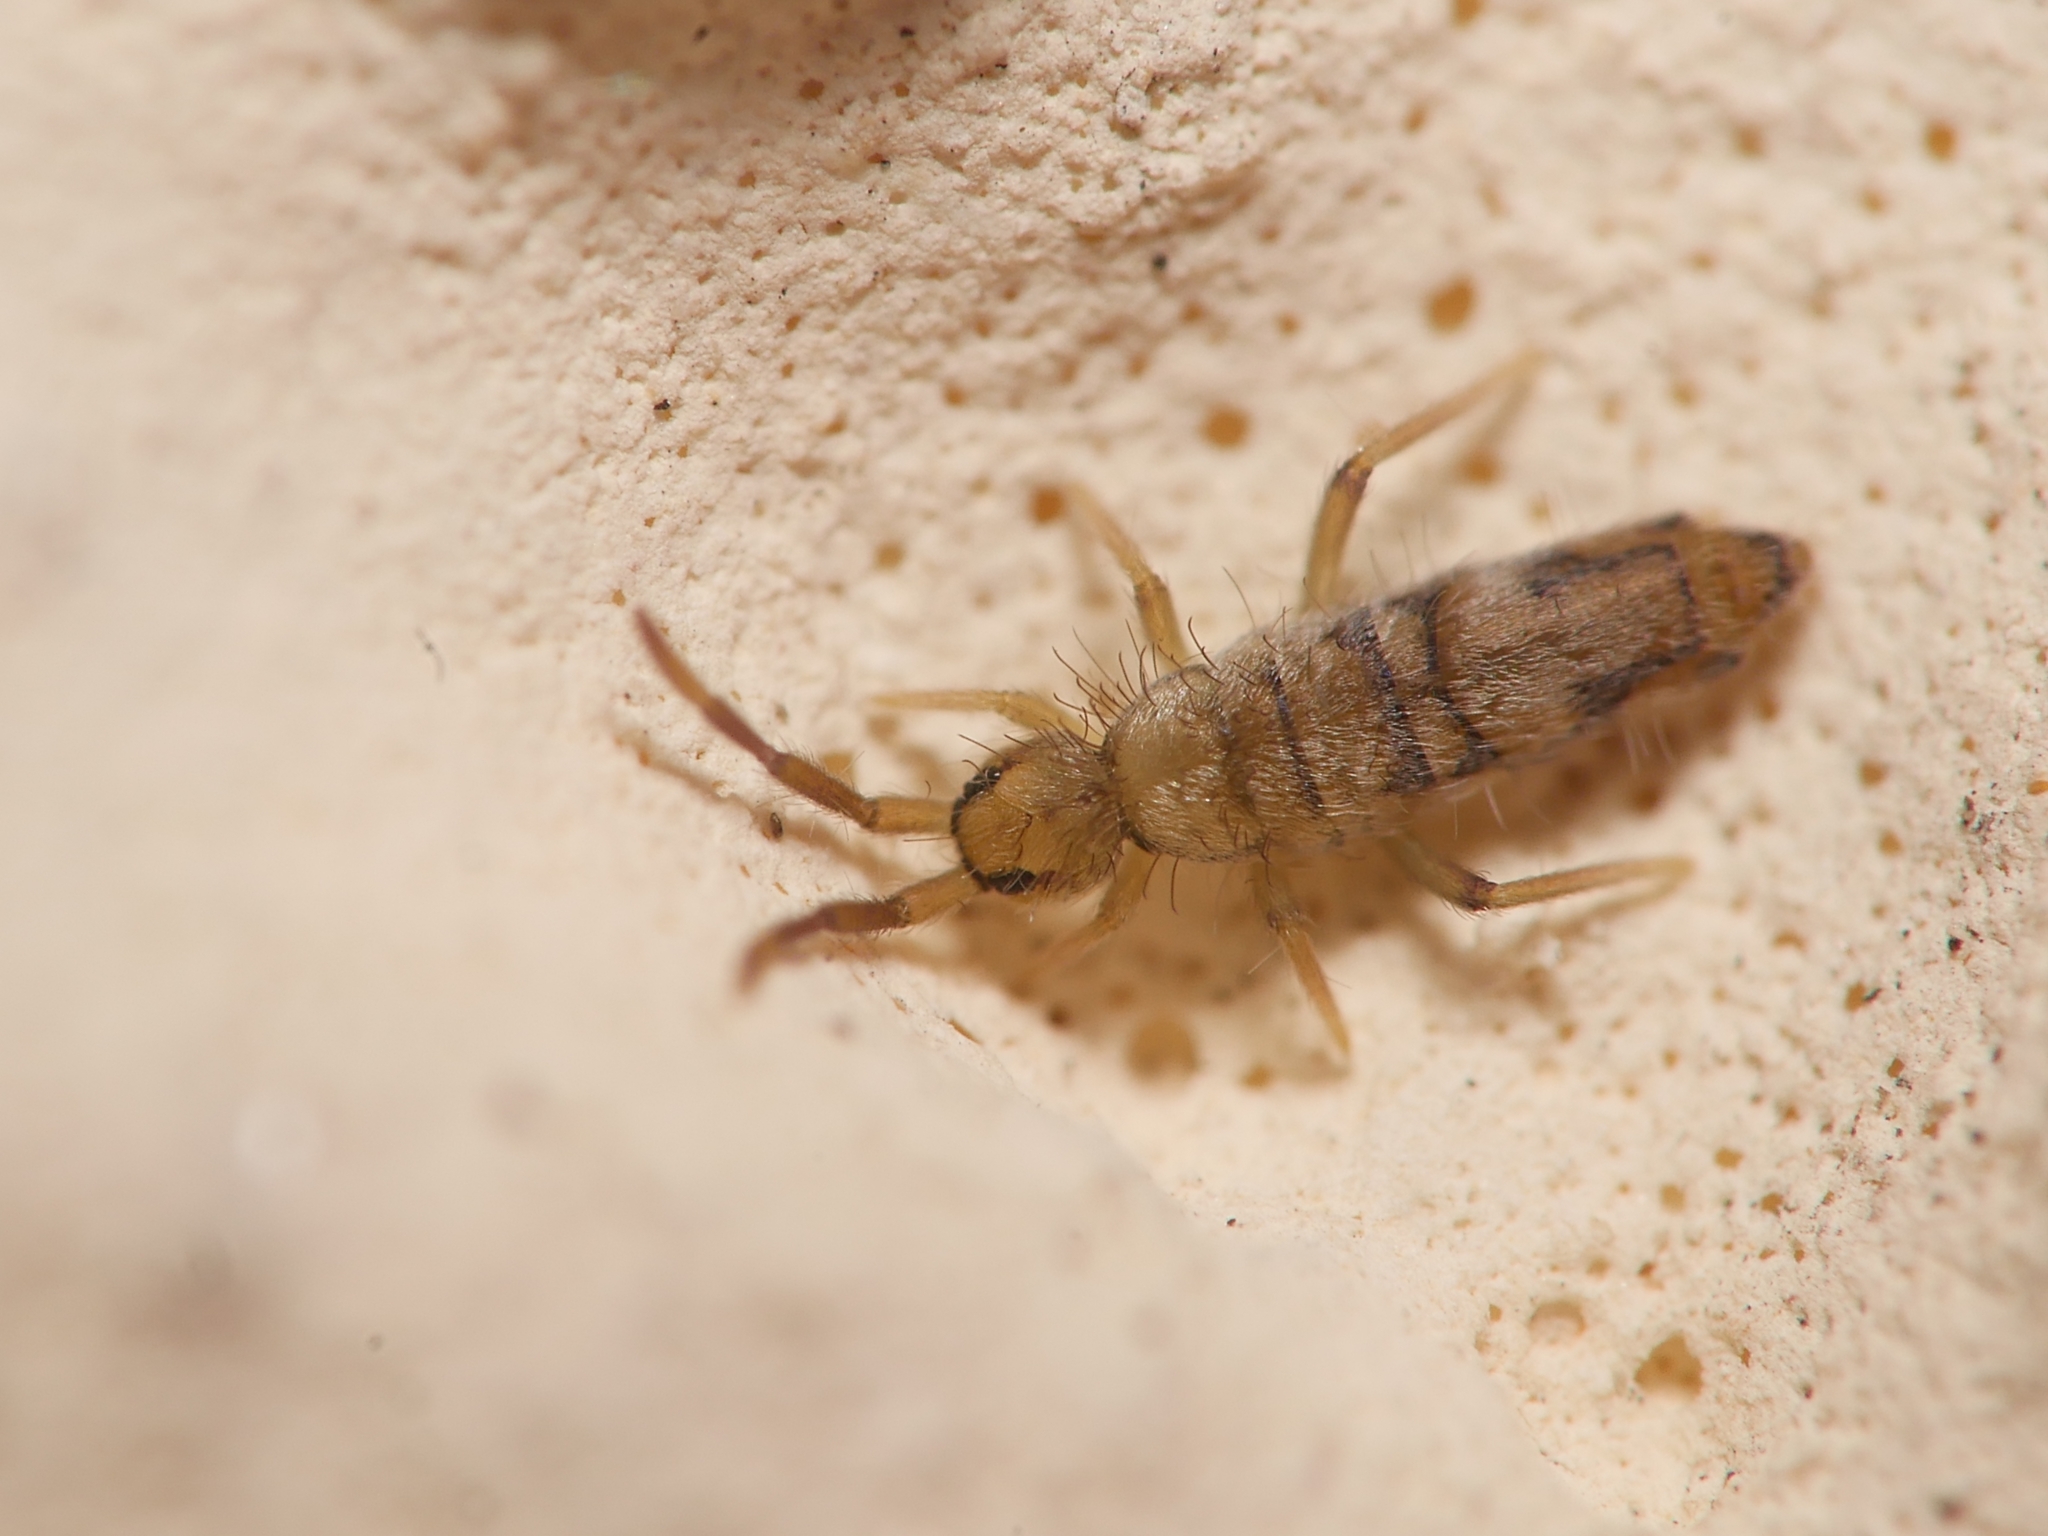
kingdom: Animalia
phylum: Arthropoda
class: Collembola
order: Entomobryomorpha
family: Entomobryidae
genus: Entomobrya
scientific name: Entomobrya nivalis
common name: Cosmopolitan springtail
